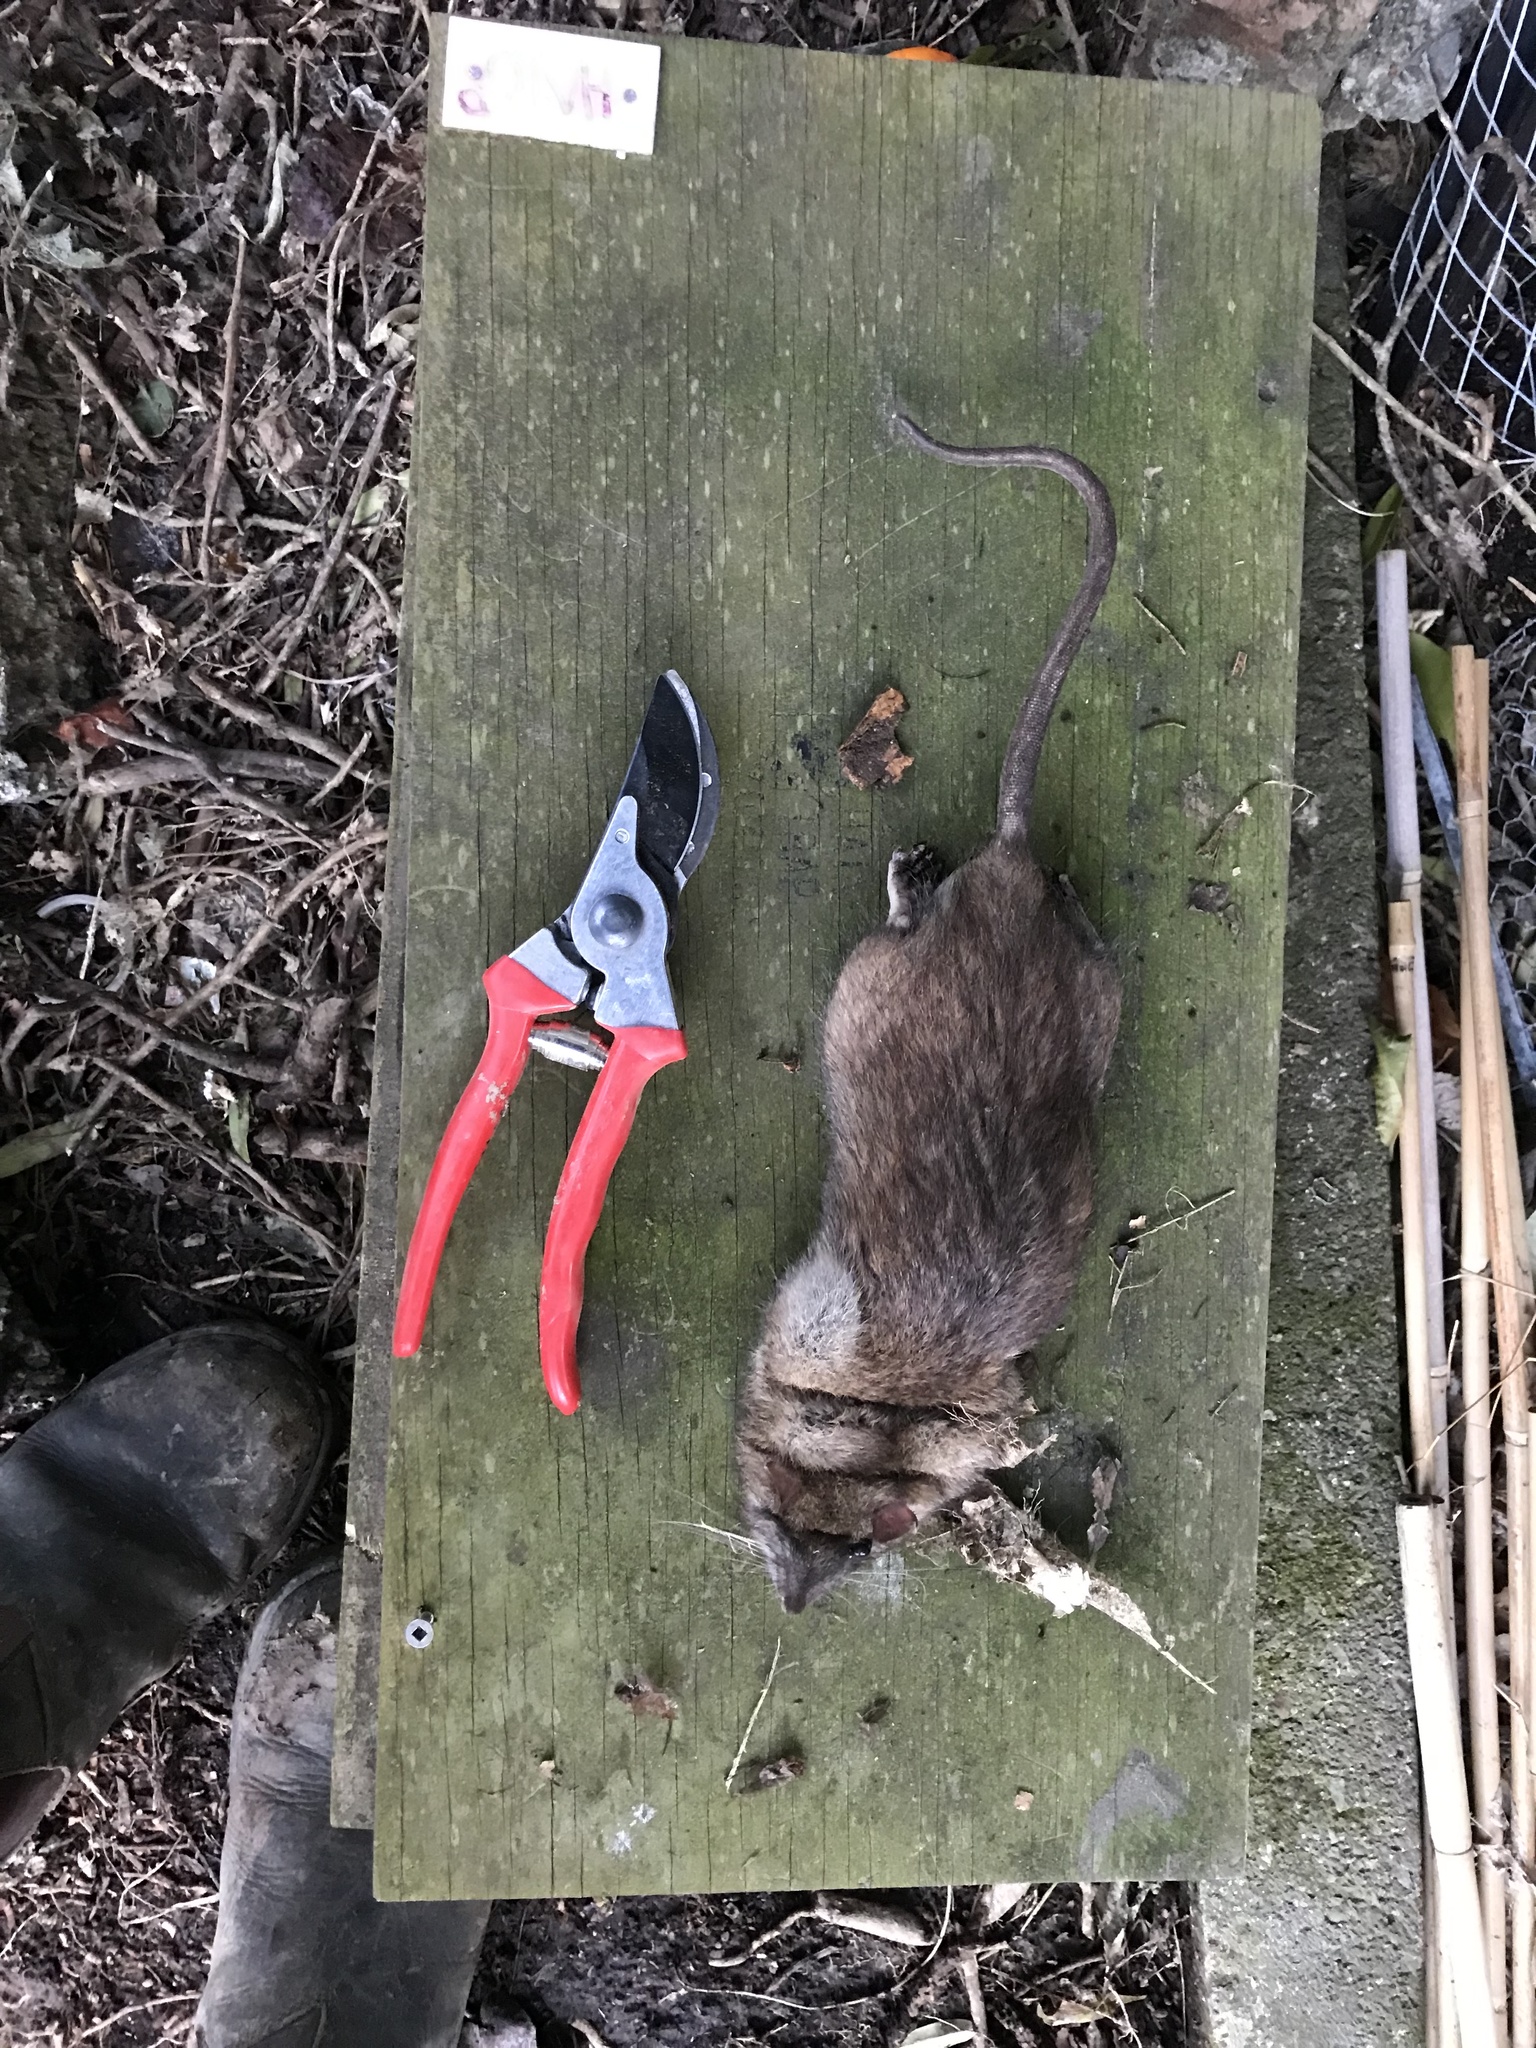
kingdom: Animalia
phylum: Chordata
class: Mammalia
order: Rodentia
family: Muridae
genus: Rattus
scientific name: Rattus norvegicus
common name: Brown rat
